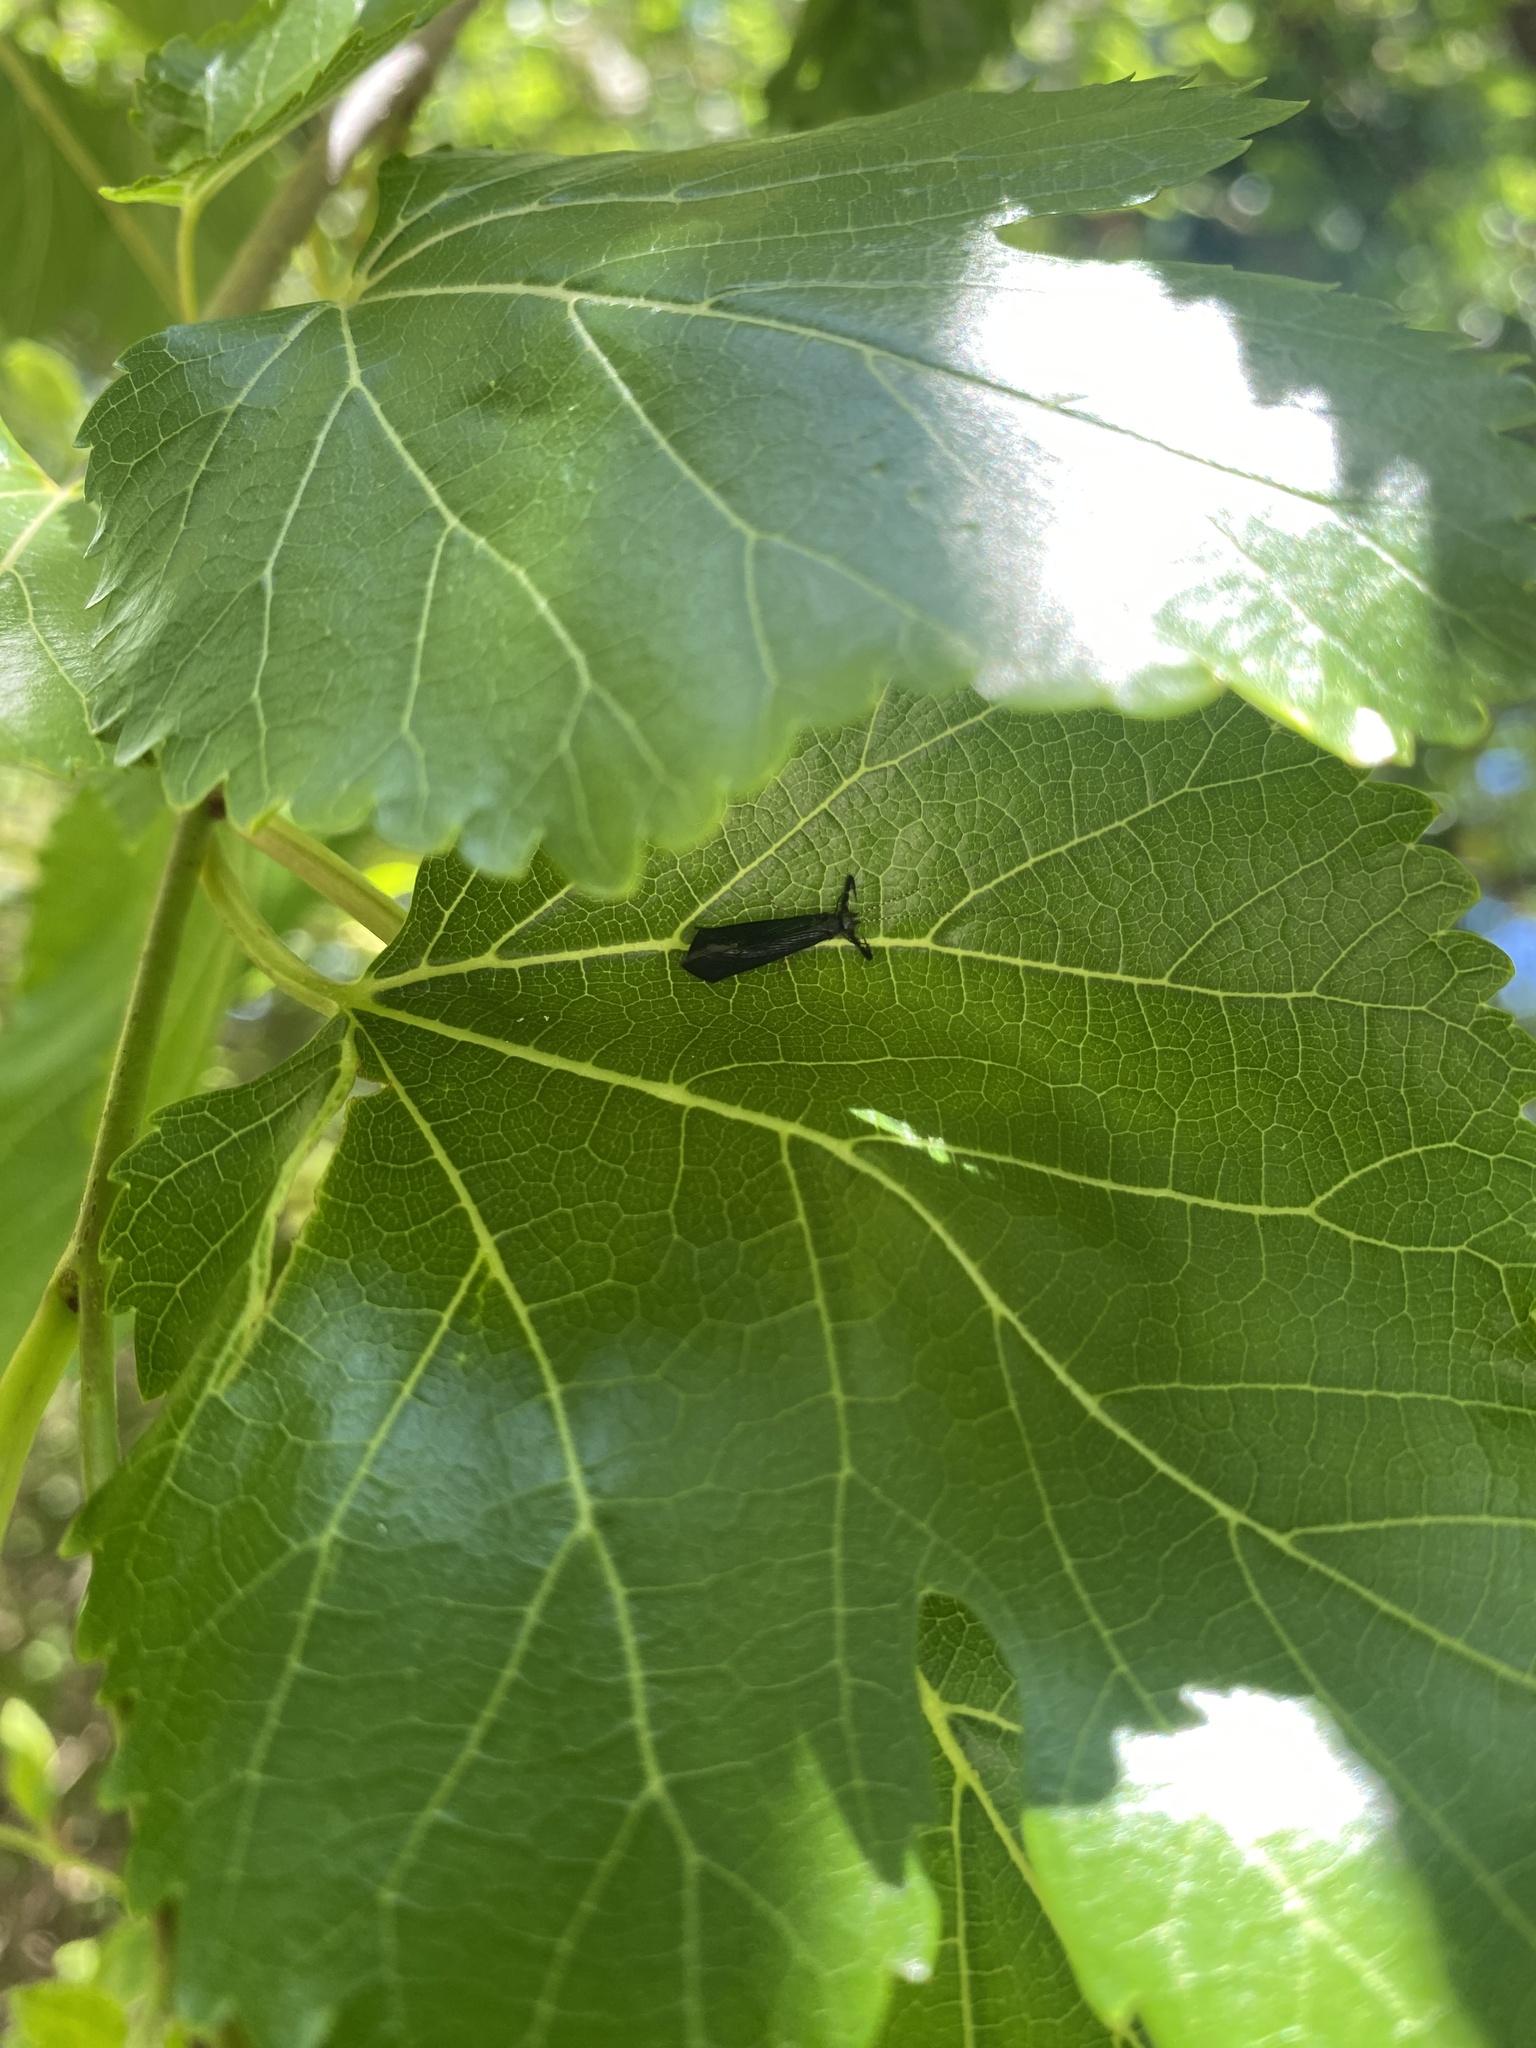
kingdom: Animalia
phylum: Arthropoda
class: Insecta
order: Trichoptera
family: Leptoceridae
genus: Mystacides
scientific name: Mystacides sepulchralis
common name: Black dancer caddisfly
